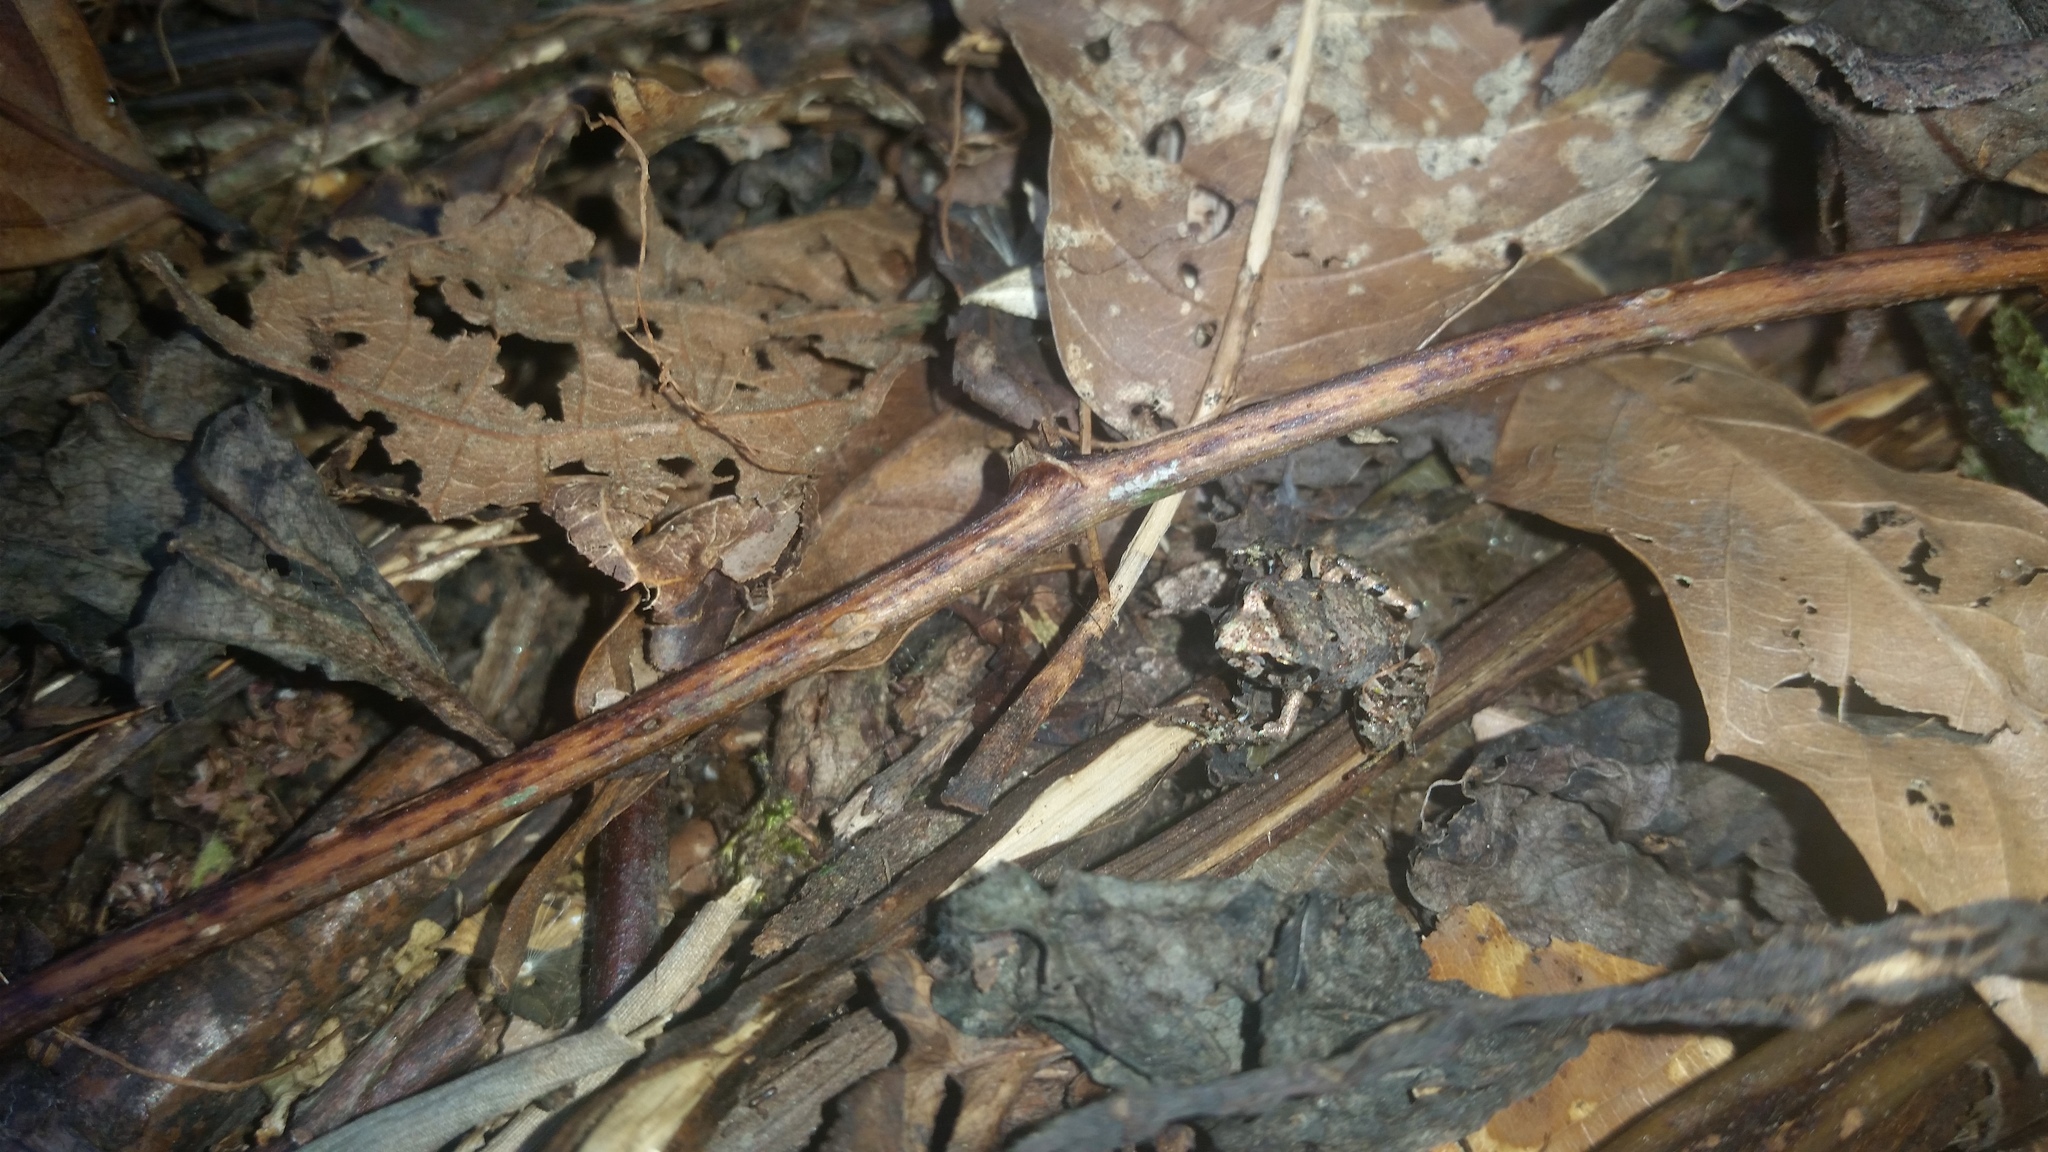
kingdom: Animalia
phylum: Chordata
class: Amphibia
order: Anura
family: Craugastoridae
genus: Craugastor
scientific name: Craugastor pygmaeus
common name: Pygmy free-fingered frog
